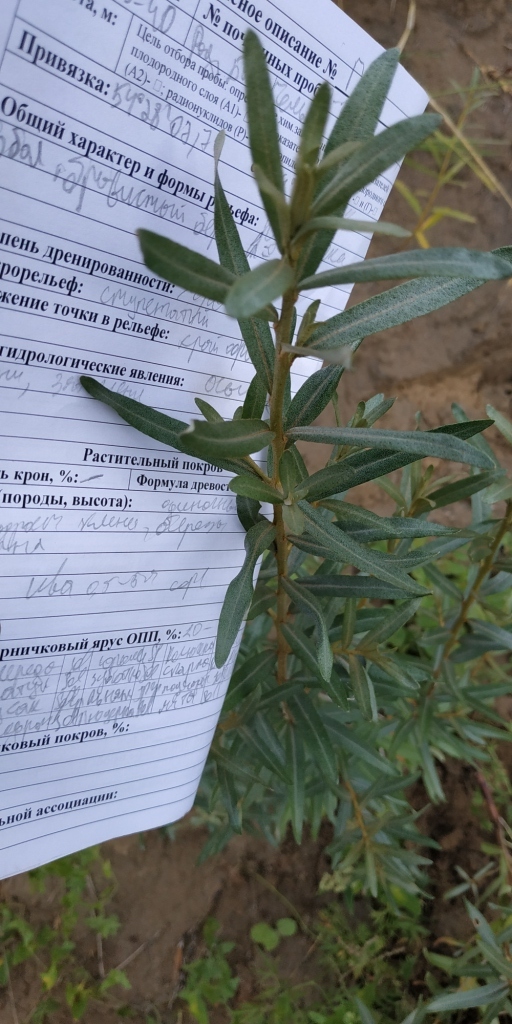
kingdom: Plantae
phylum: Tracheophyta
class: Magnoliopsida
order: Rosales
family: Elaeagnaceae
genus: Hippophae
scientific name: Hippophae rhamnoides
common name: Sea-buckthorn
